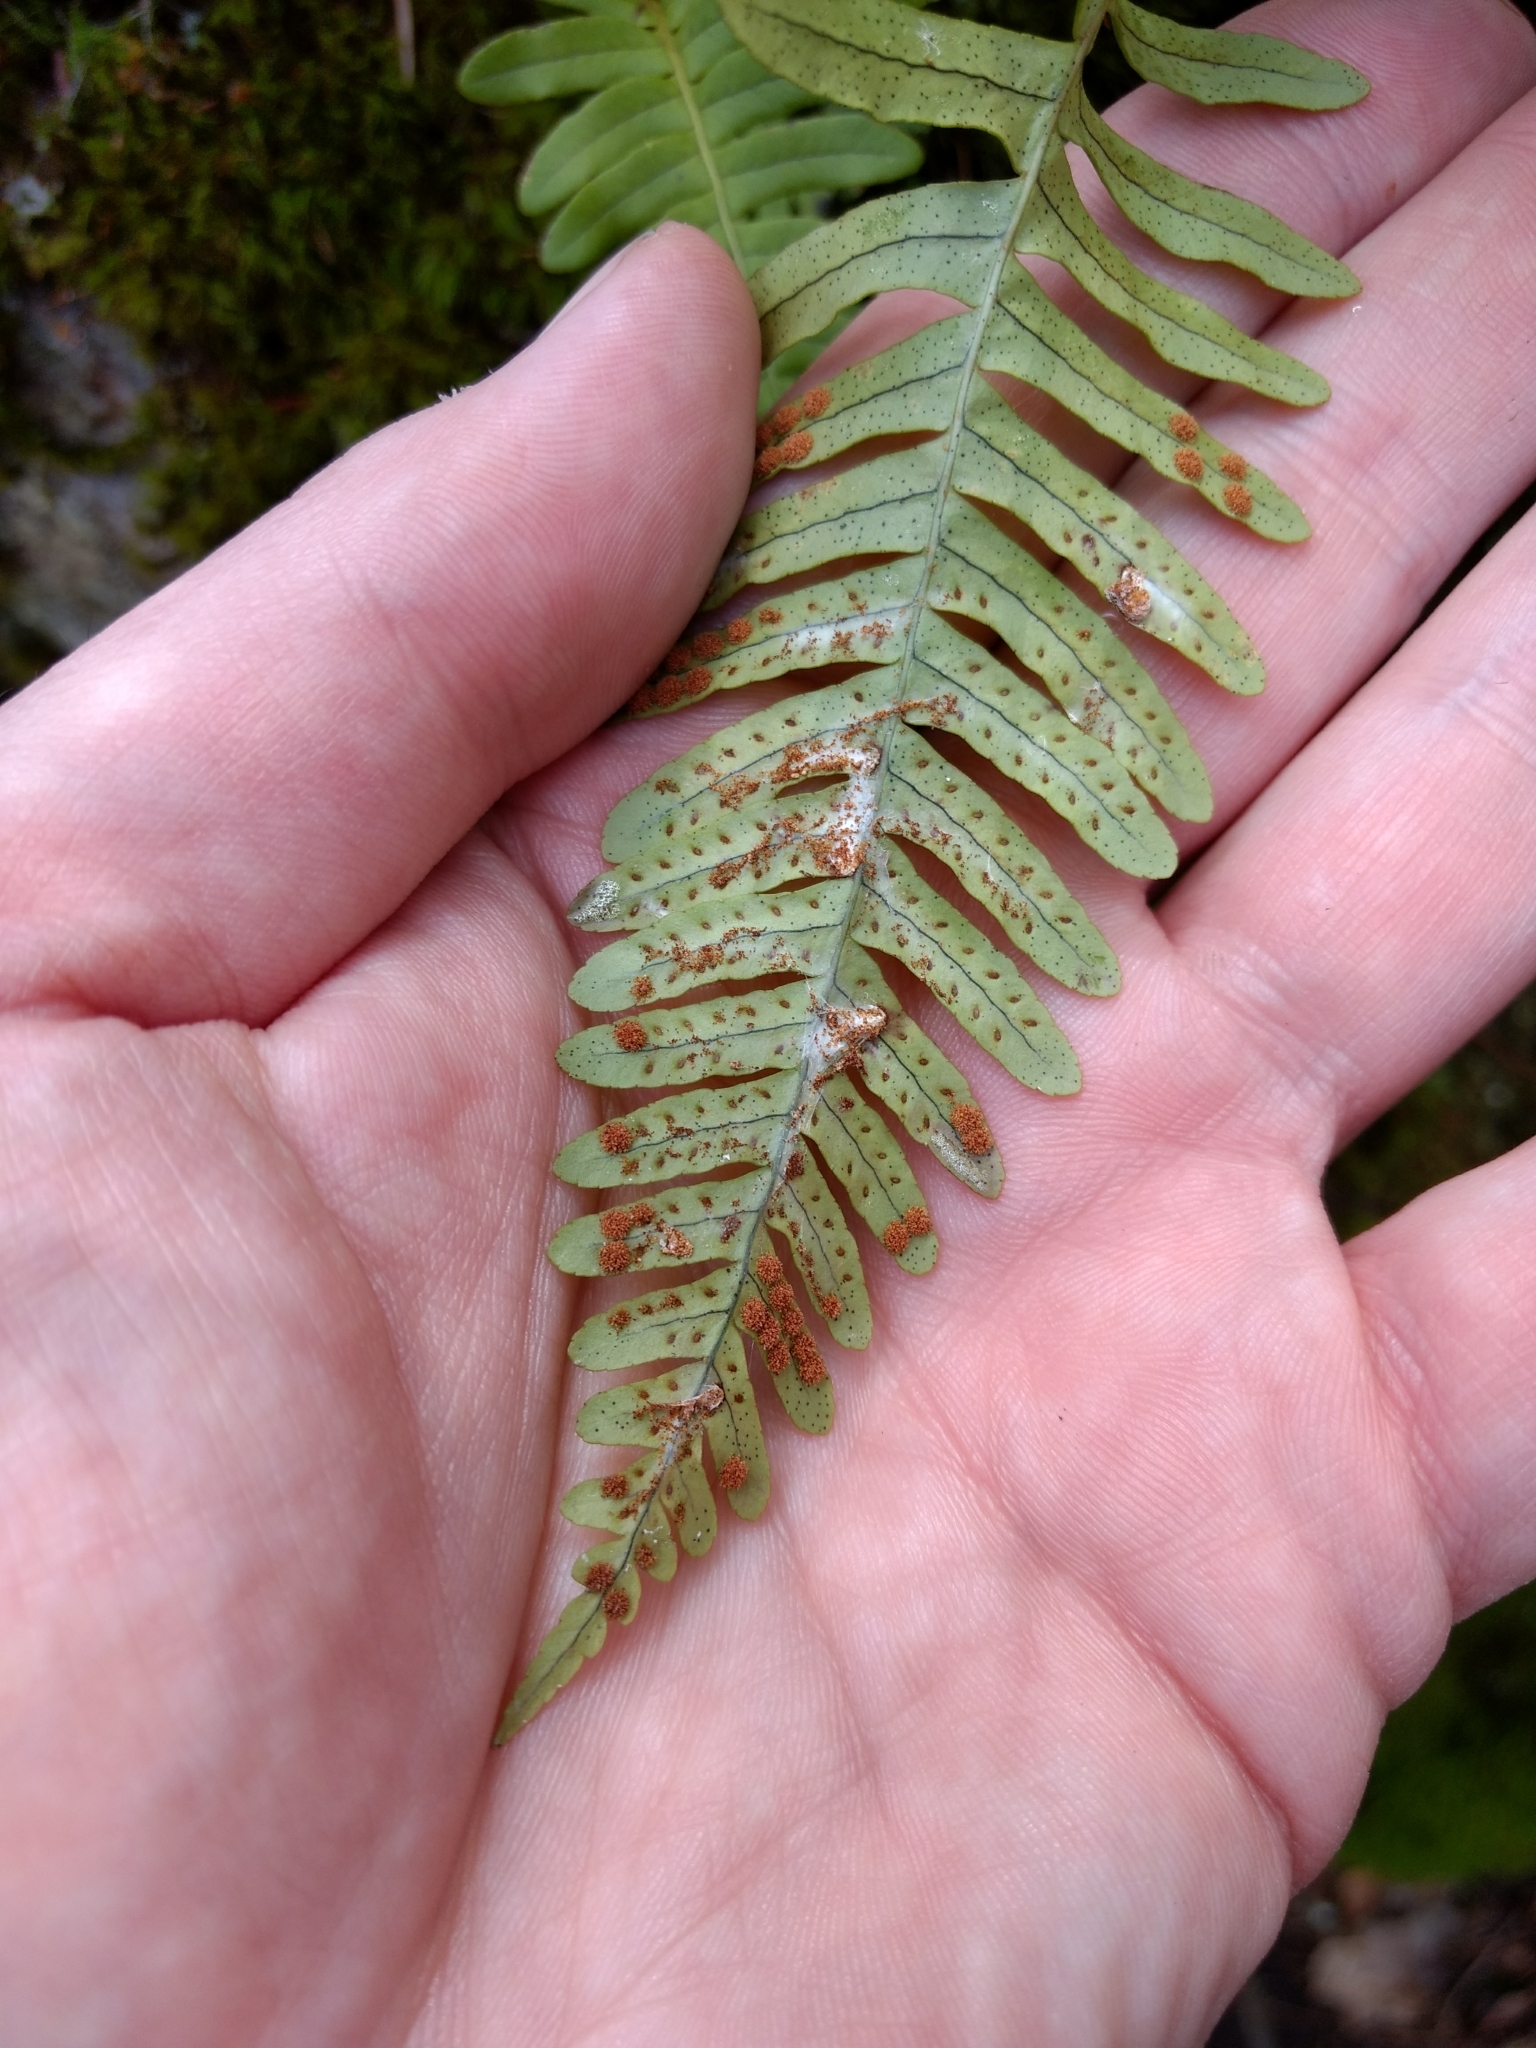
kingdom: Plantae
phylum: Tracheophyta
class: Polypodiopsida
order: Polypodiales
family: Polypodiaceae
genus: Polypodium
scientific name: Polypodium virginianum
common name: American wall fern
